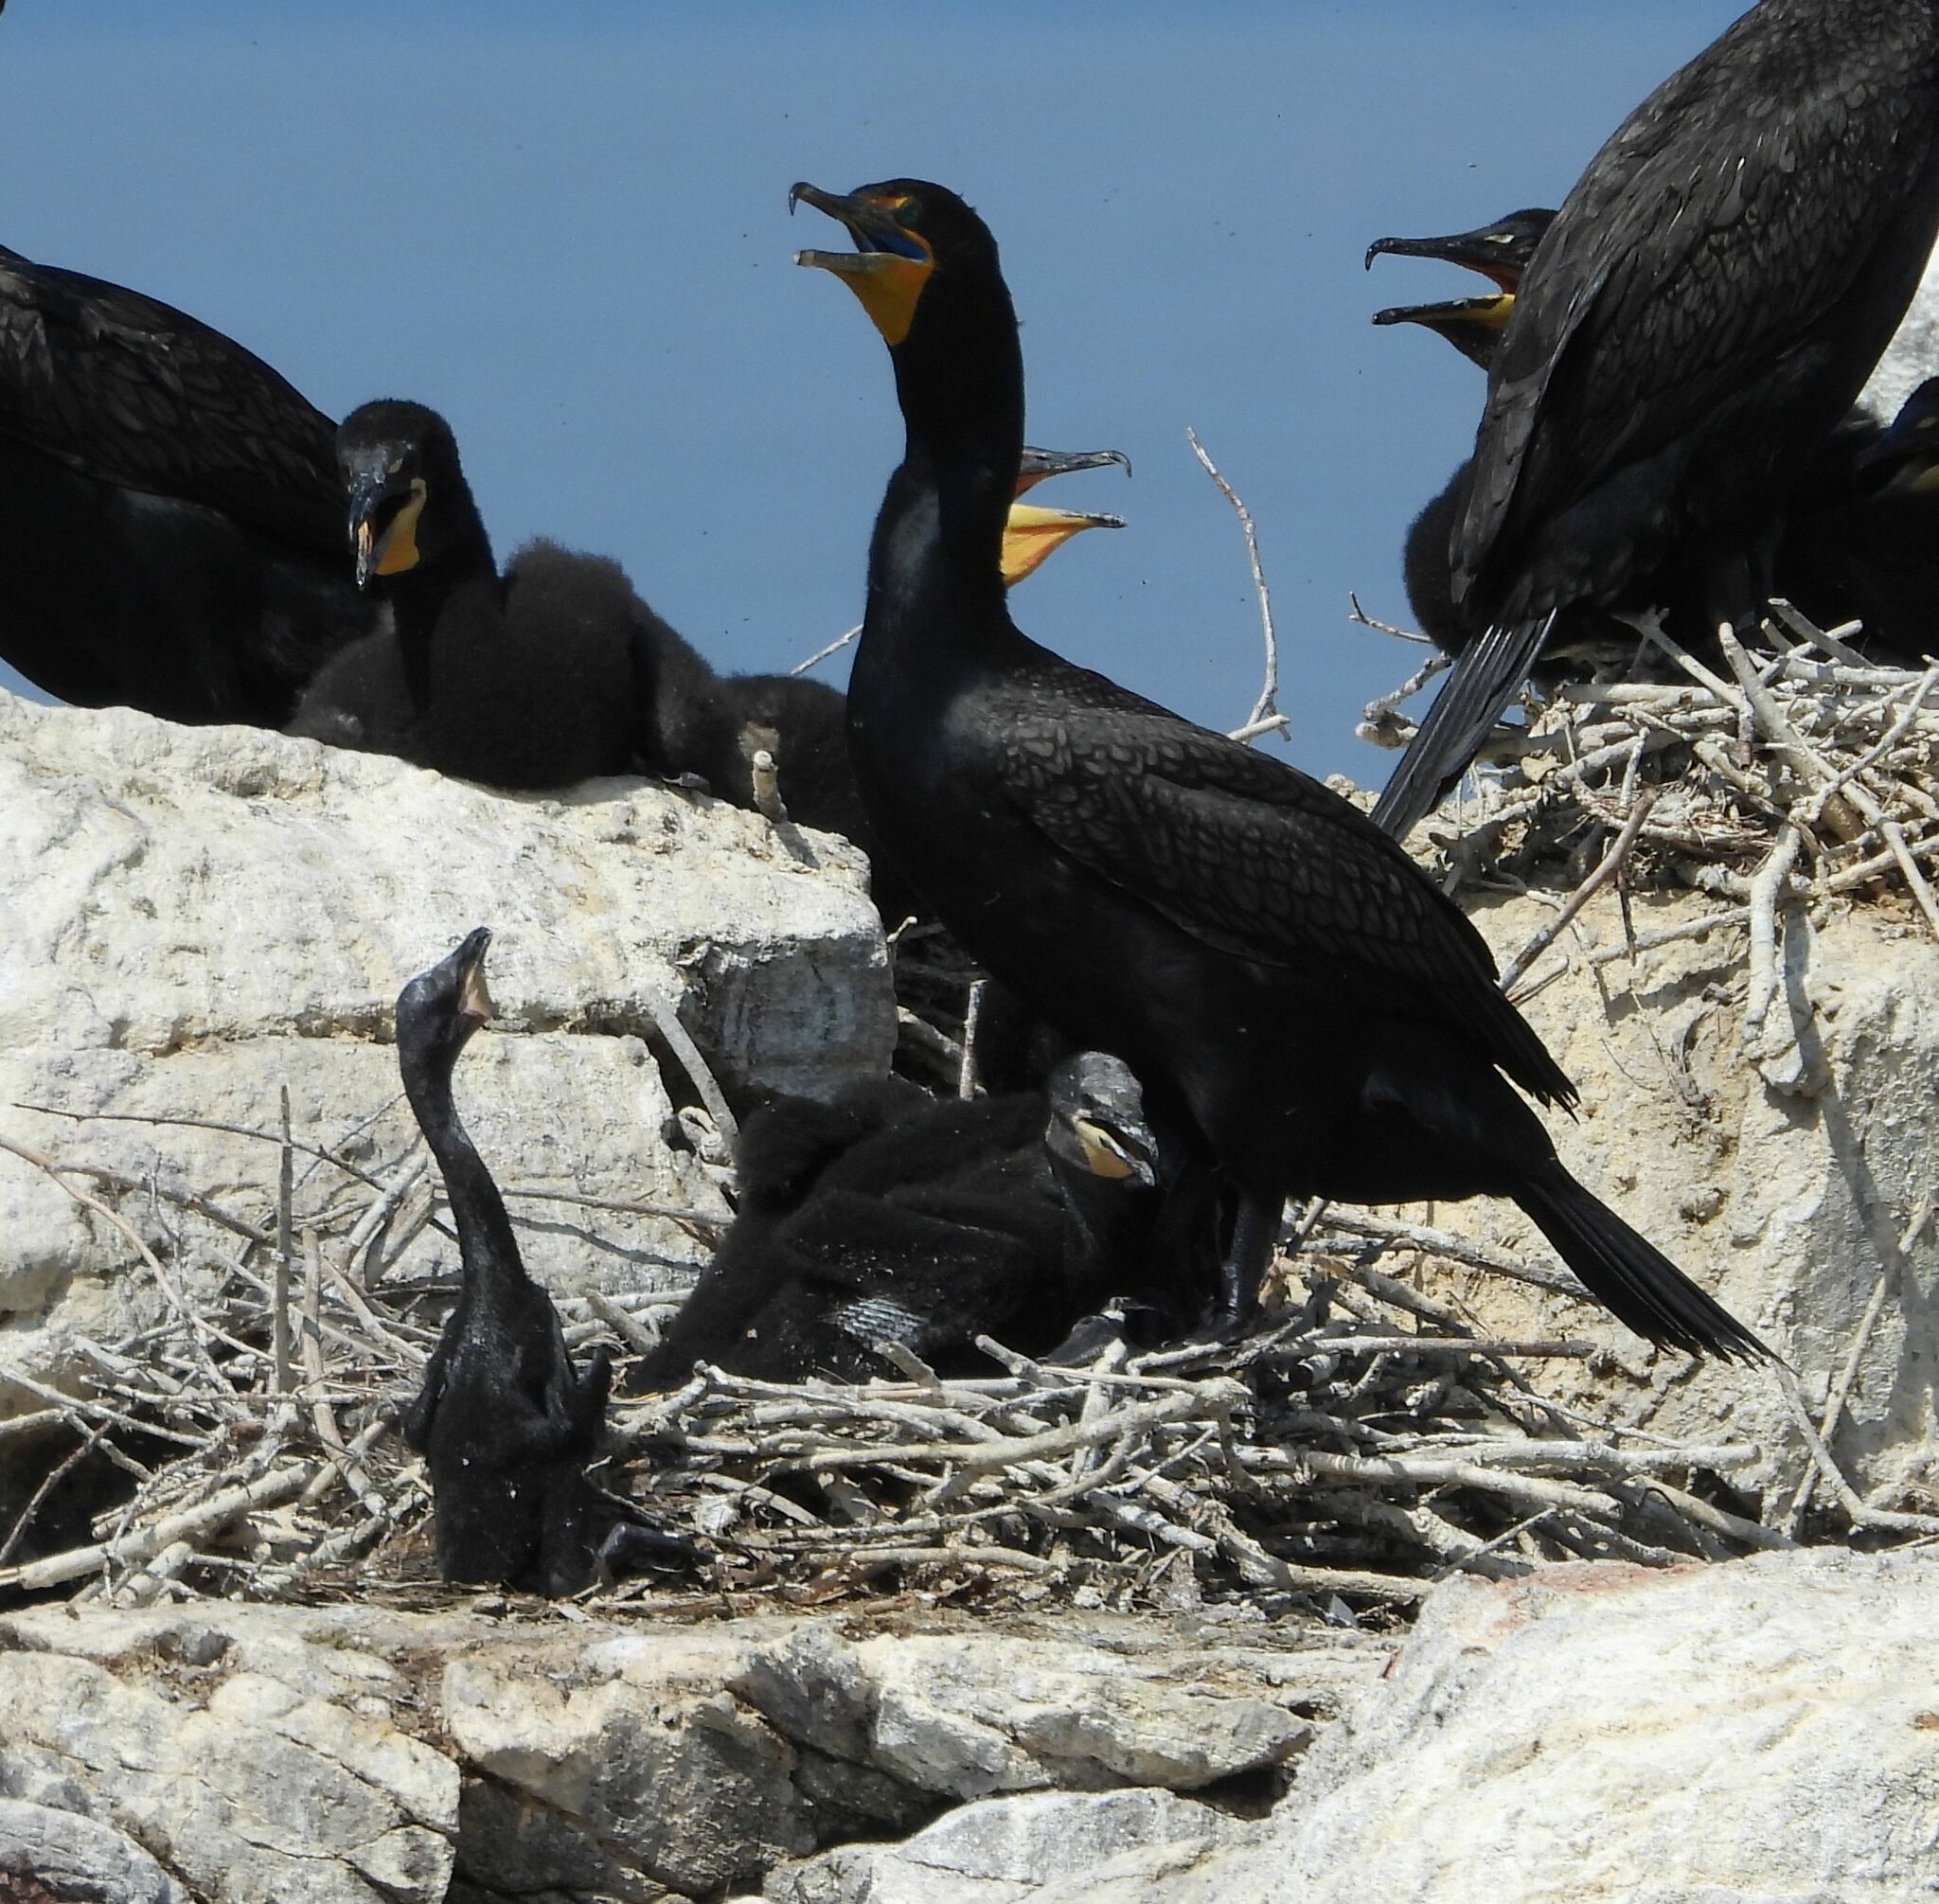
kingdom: Animalia
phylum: Chordata
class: Aves
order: Suliformes
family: Phalacrocoracidae
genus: Phalacrocorax
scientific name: Phalacrocorax auritus
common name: Double-crested cormorant
